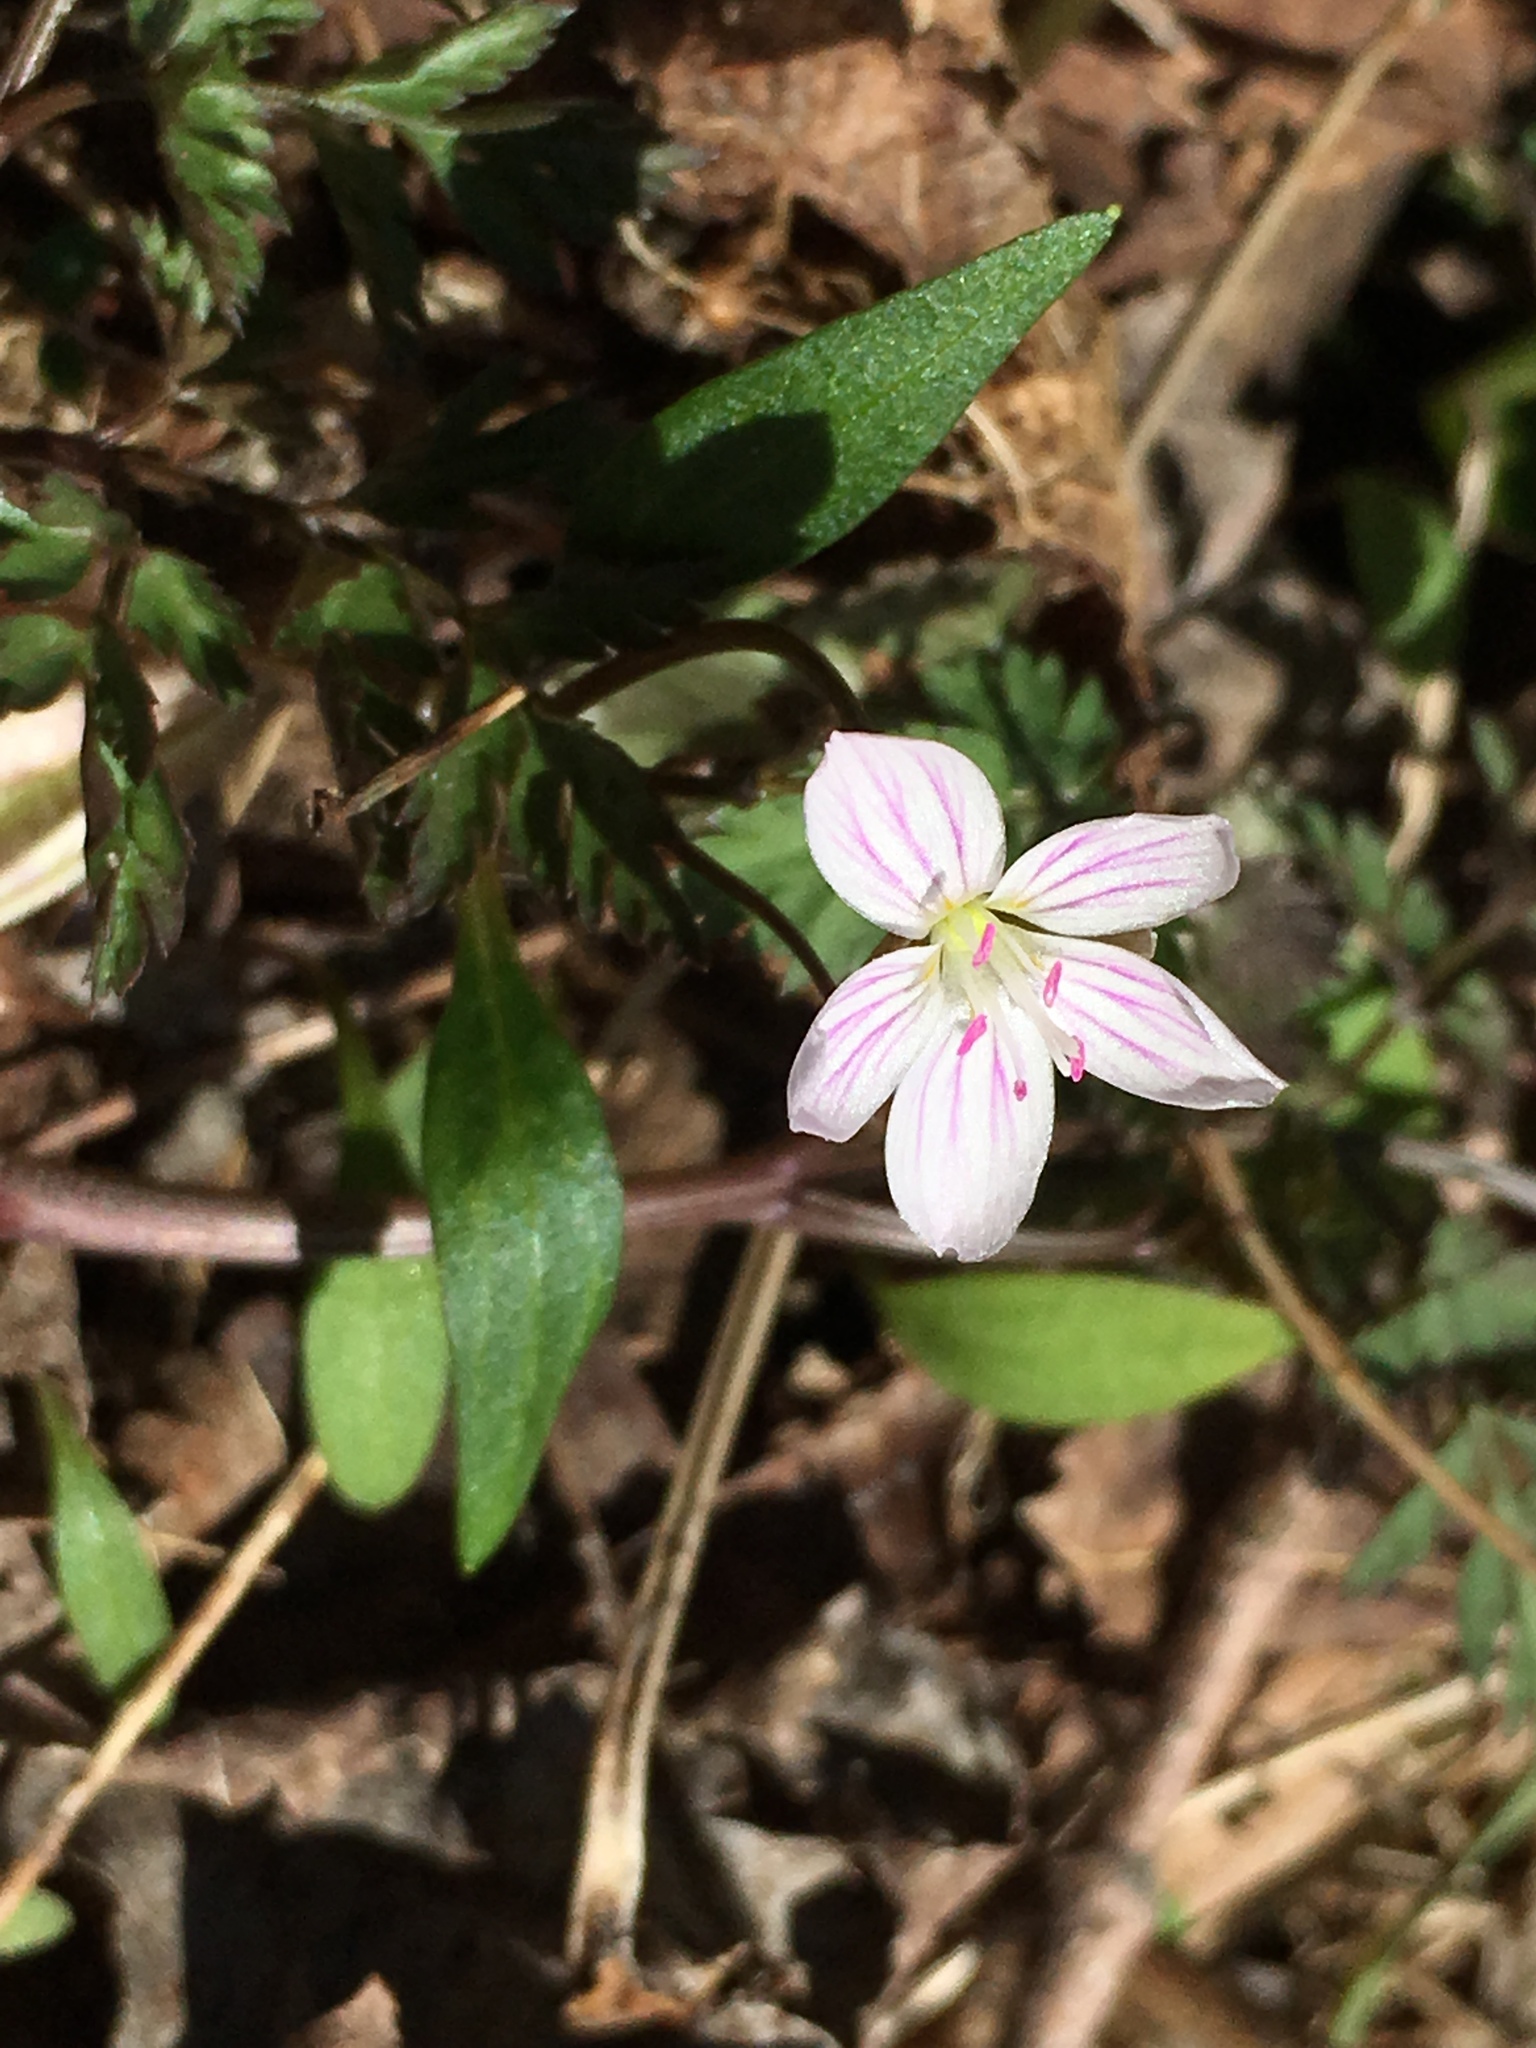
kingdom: Plantae
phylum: Tracheophyta
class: Magnoliopsida
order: Caryophyllales
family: Montiaceae
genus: Claytonia
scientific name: Claytonia caroliniana
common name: Carolina spring beauty
